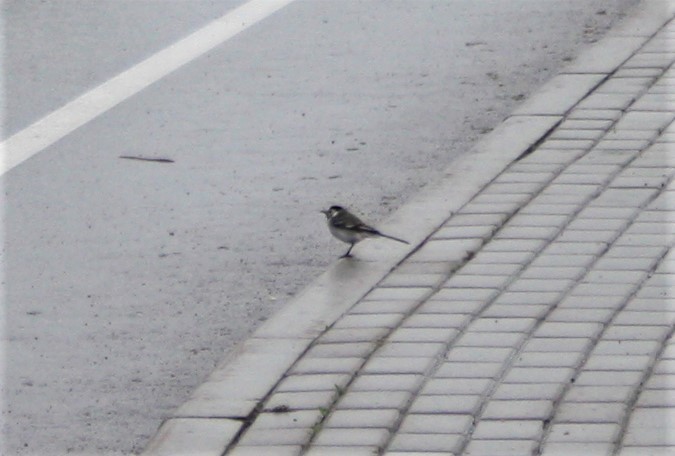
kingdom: Animalia
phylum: Chordata
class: Aves
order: Passeriformes
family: Motacillidae
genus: Motacilla
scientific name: Motacilla alba
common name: White wagtail
